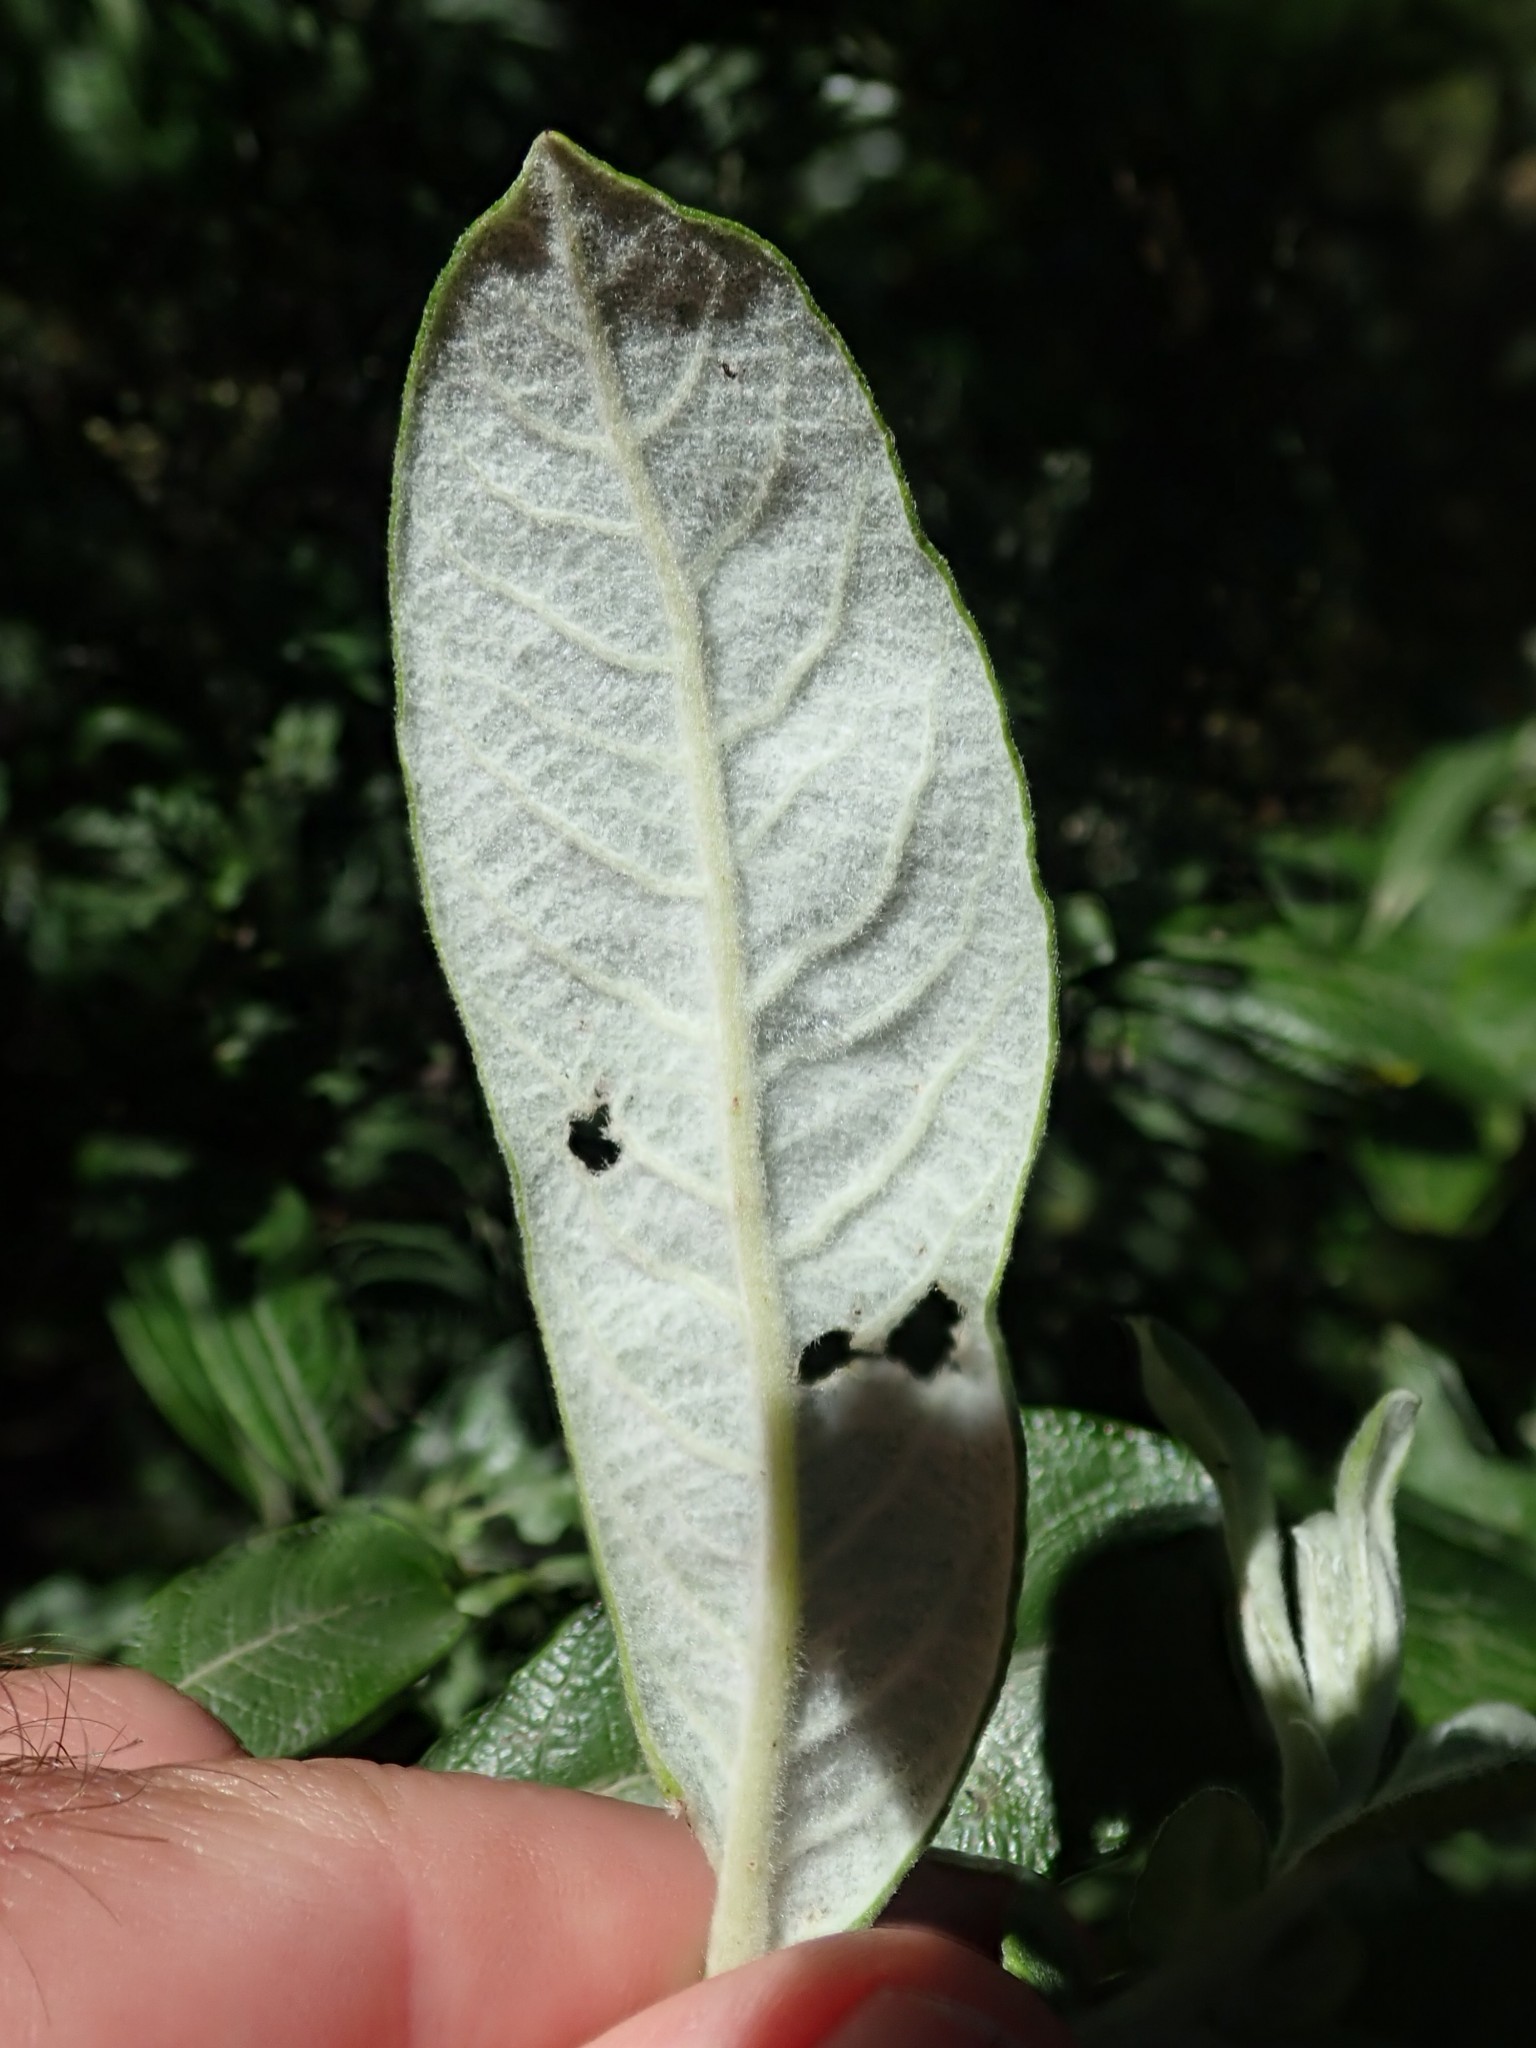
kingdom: Plantae
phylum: Tracheophyta
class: Magnoliopsida
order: Malpighiales
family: Salicaceae
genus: Salix
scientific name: Salix sitchensis
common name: Sitka willow
